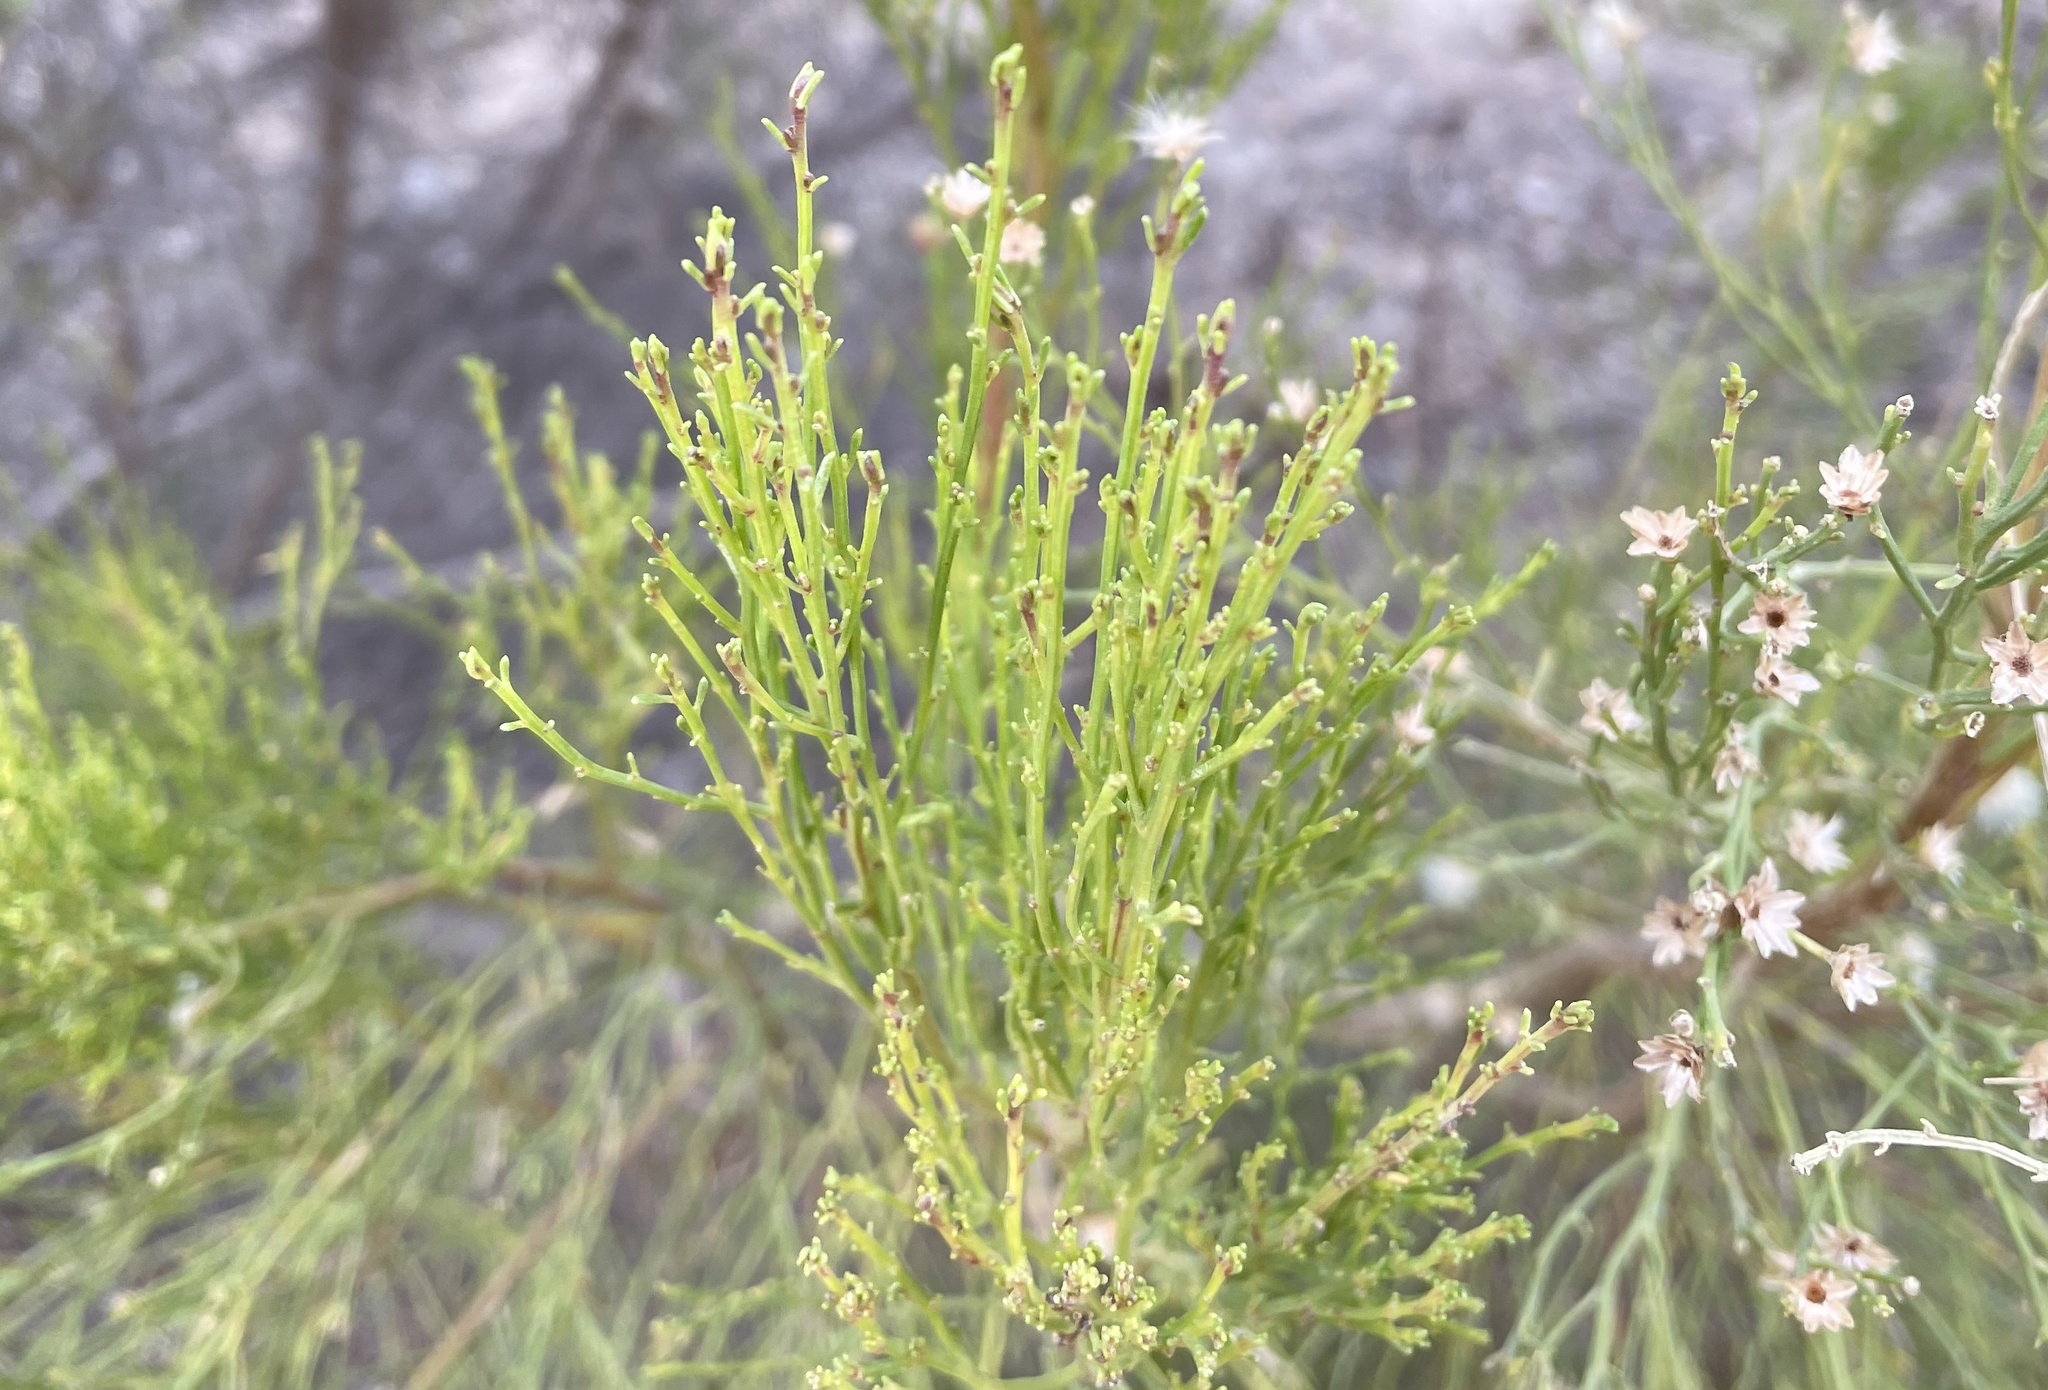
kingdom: Plantae
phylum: Tracheophyta
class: Magnoliopsida
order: Asterales
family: Asteraceae
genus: Baccharis
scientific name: Baccharis sarothroides
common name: Desert-broom
